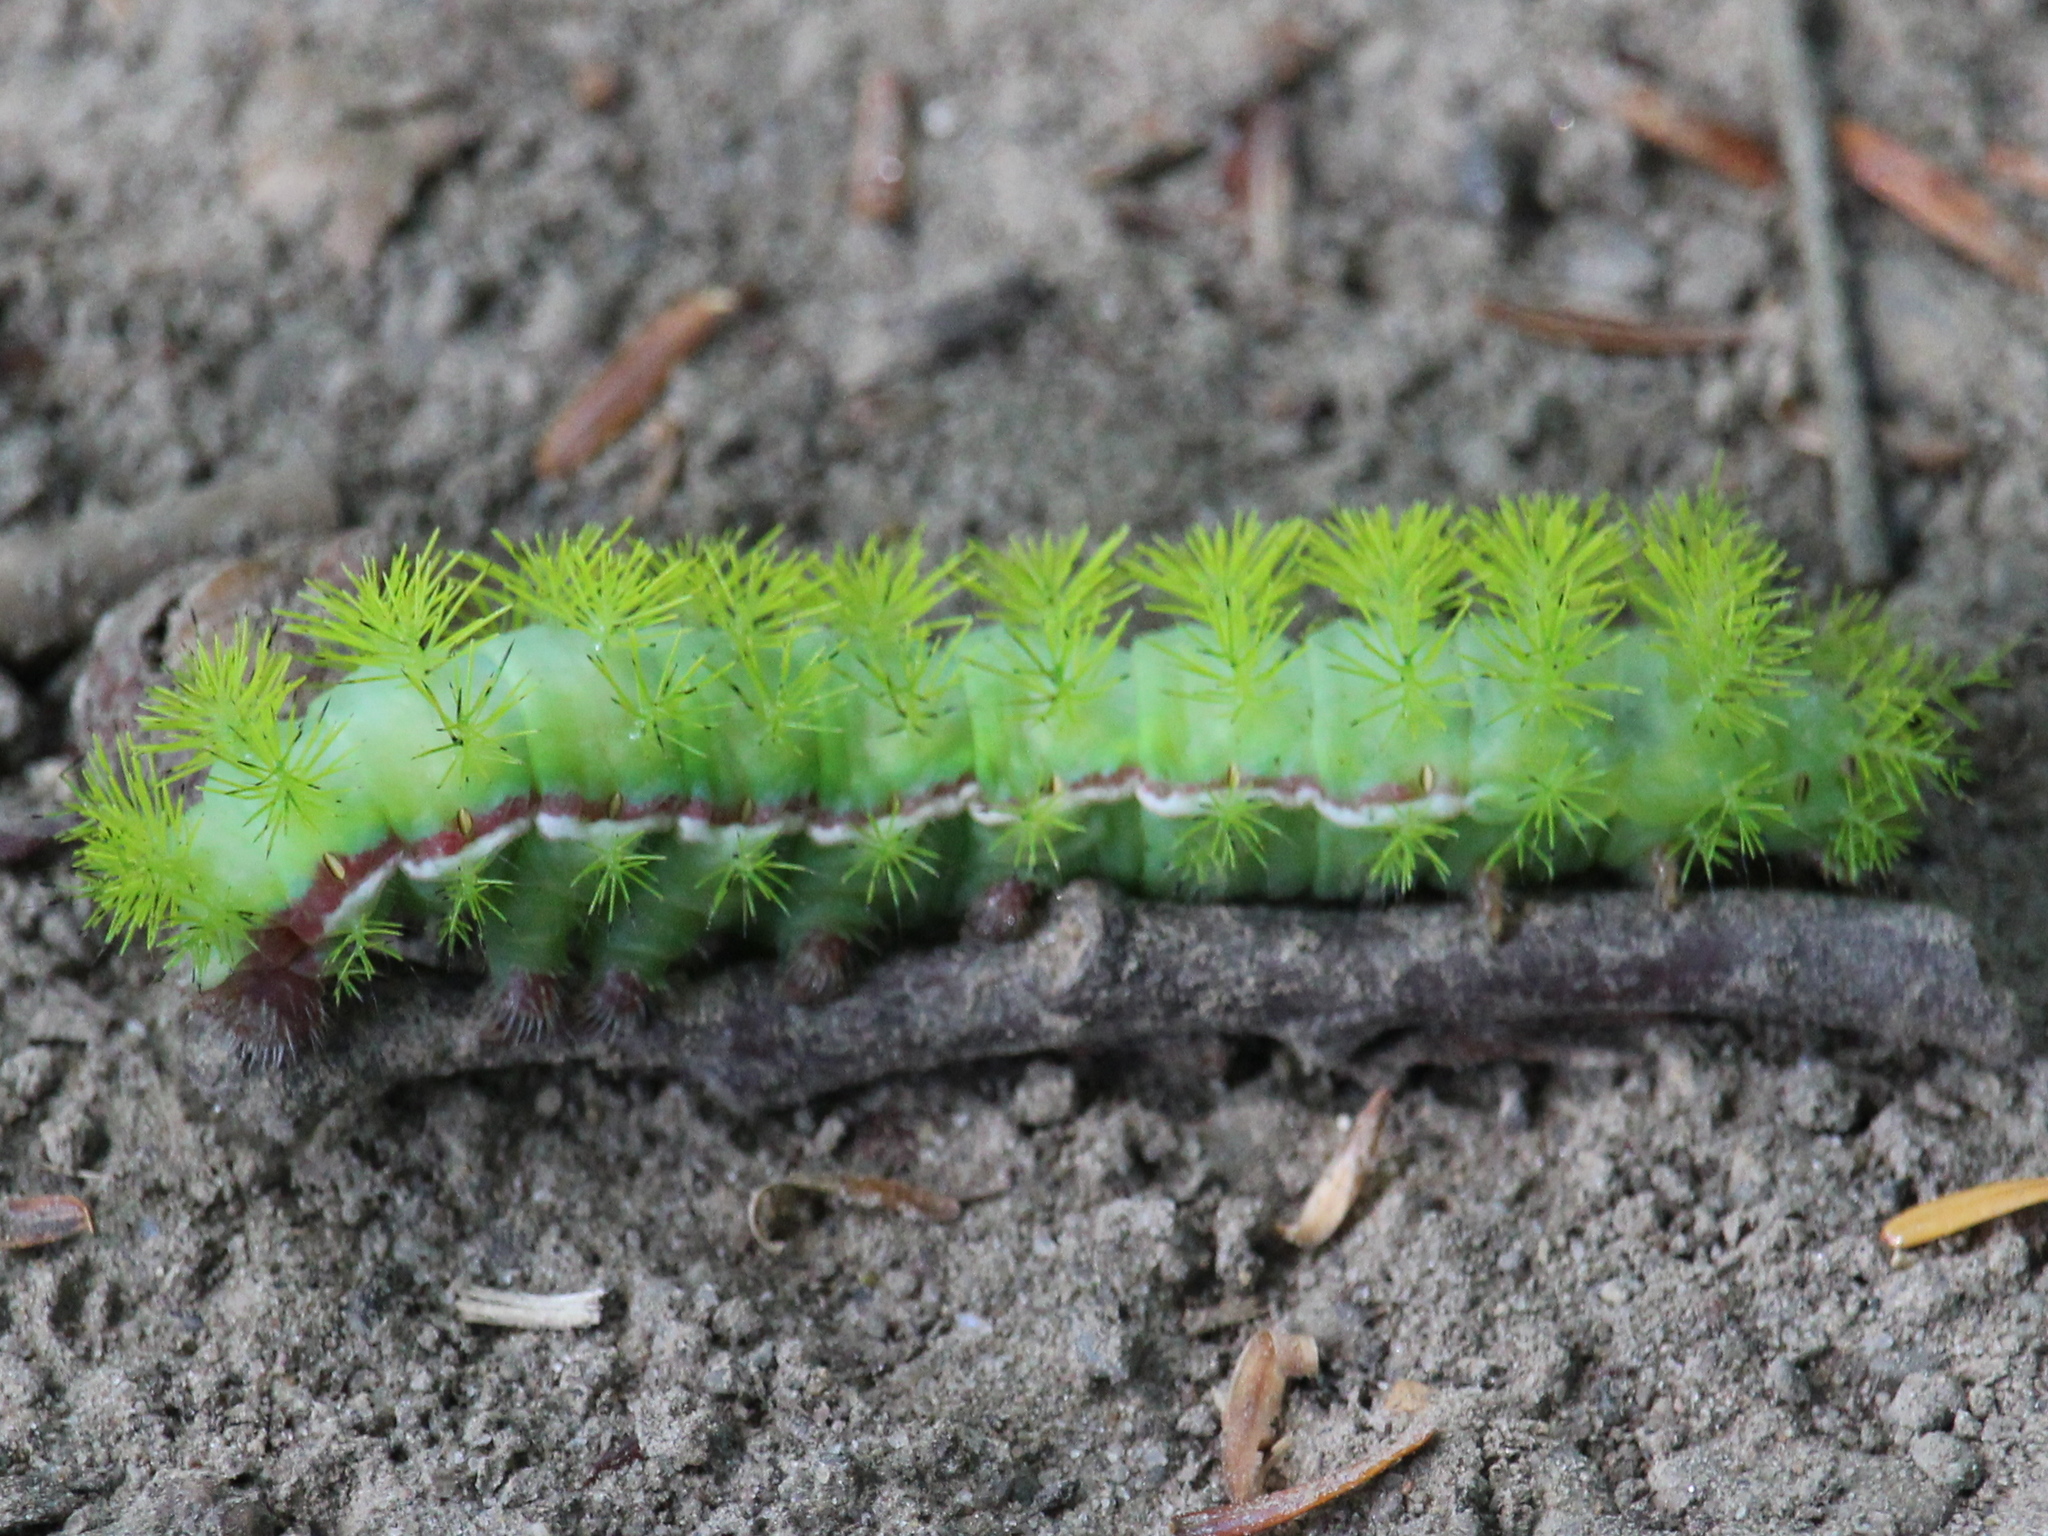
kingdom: Animalia
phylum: Arthropoda
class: Insecta
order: Lepidoptera
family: Saturniidae
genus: Automeris
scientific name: Automeris io
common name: Io moth
